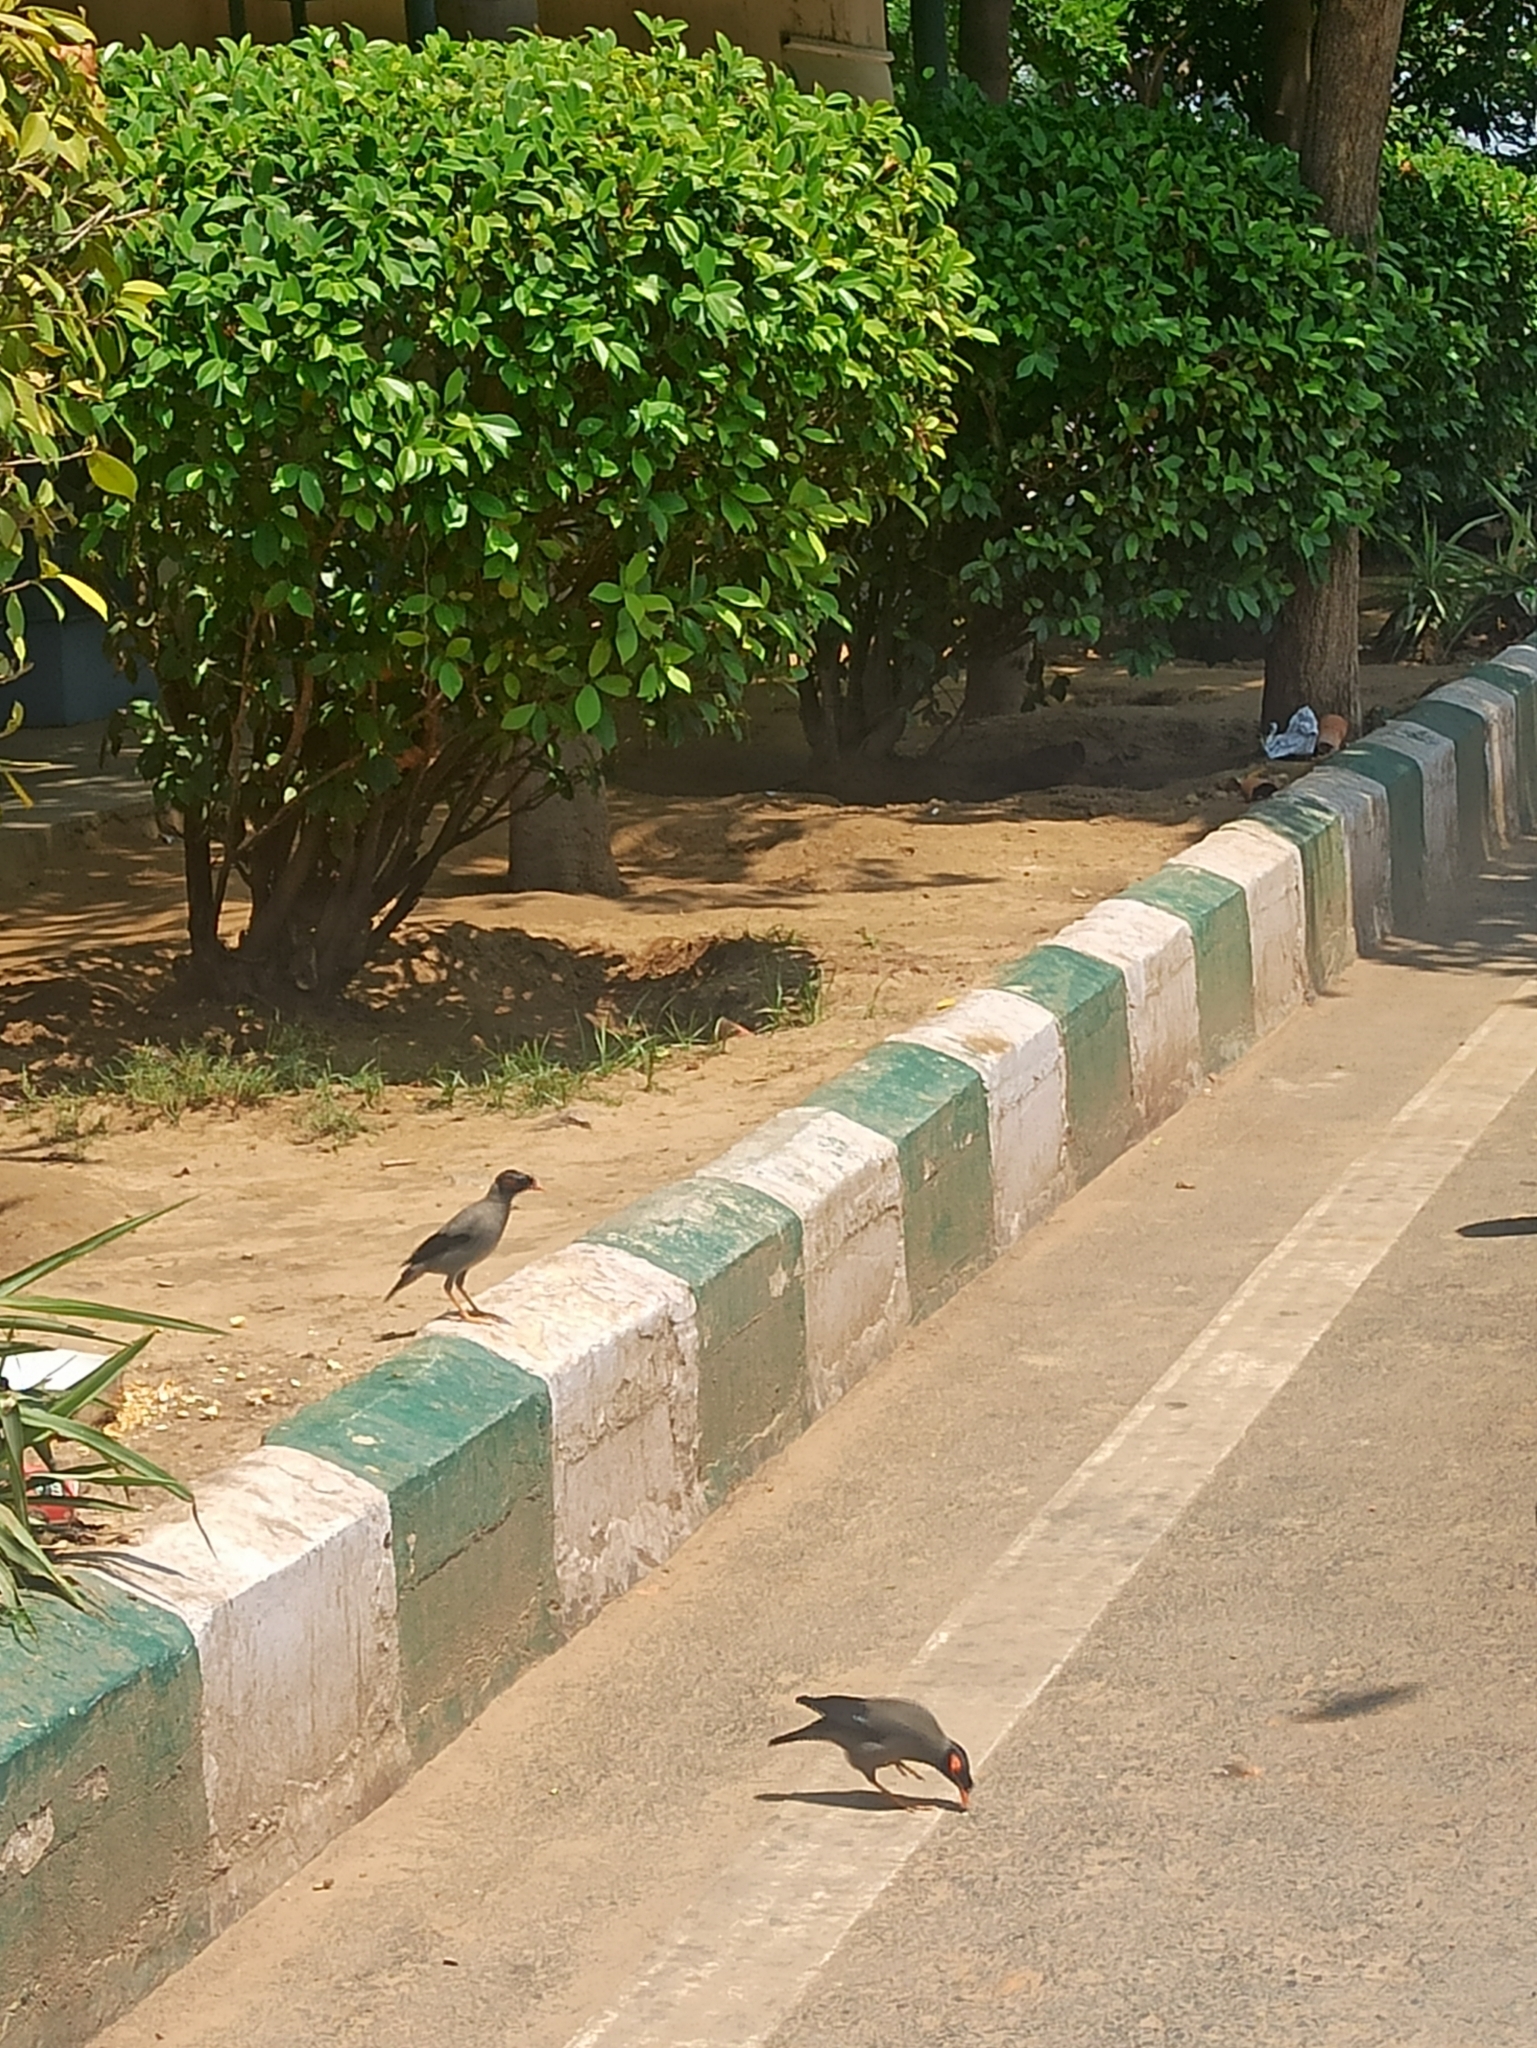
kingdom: Animalia
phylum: Chordata
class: Aves
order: Passeriformes
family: Sturnidae
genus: Acridotheres
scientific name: Acridotheres ginginianus
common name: Bank myna
